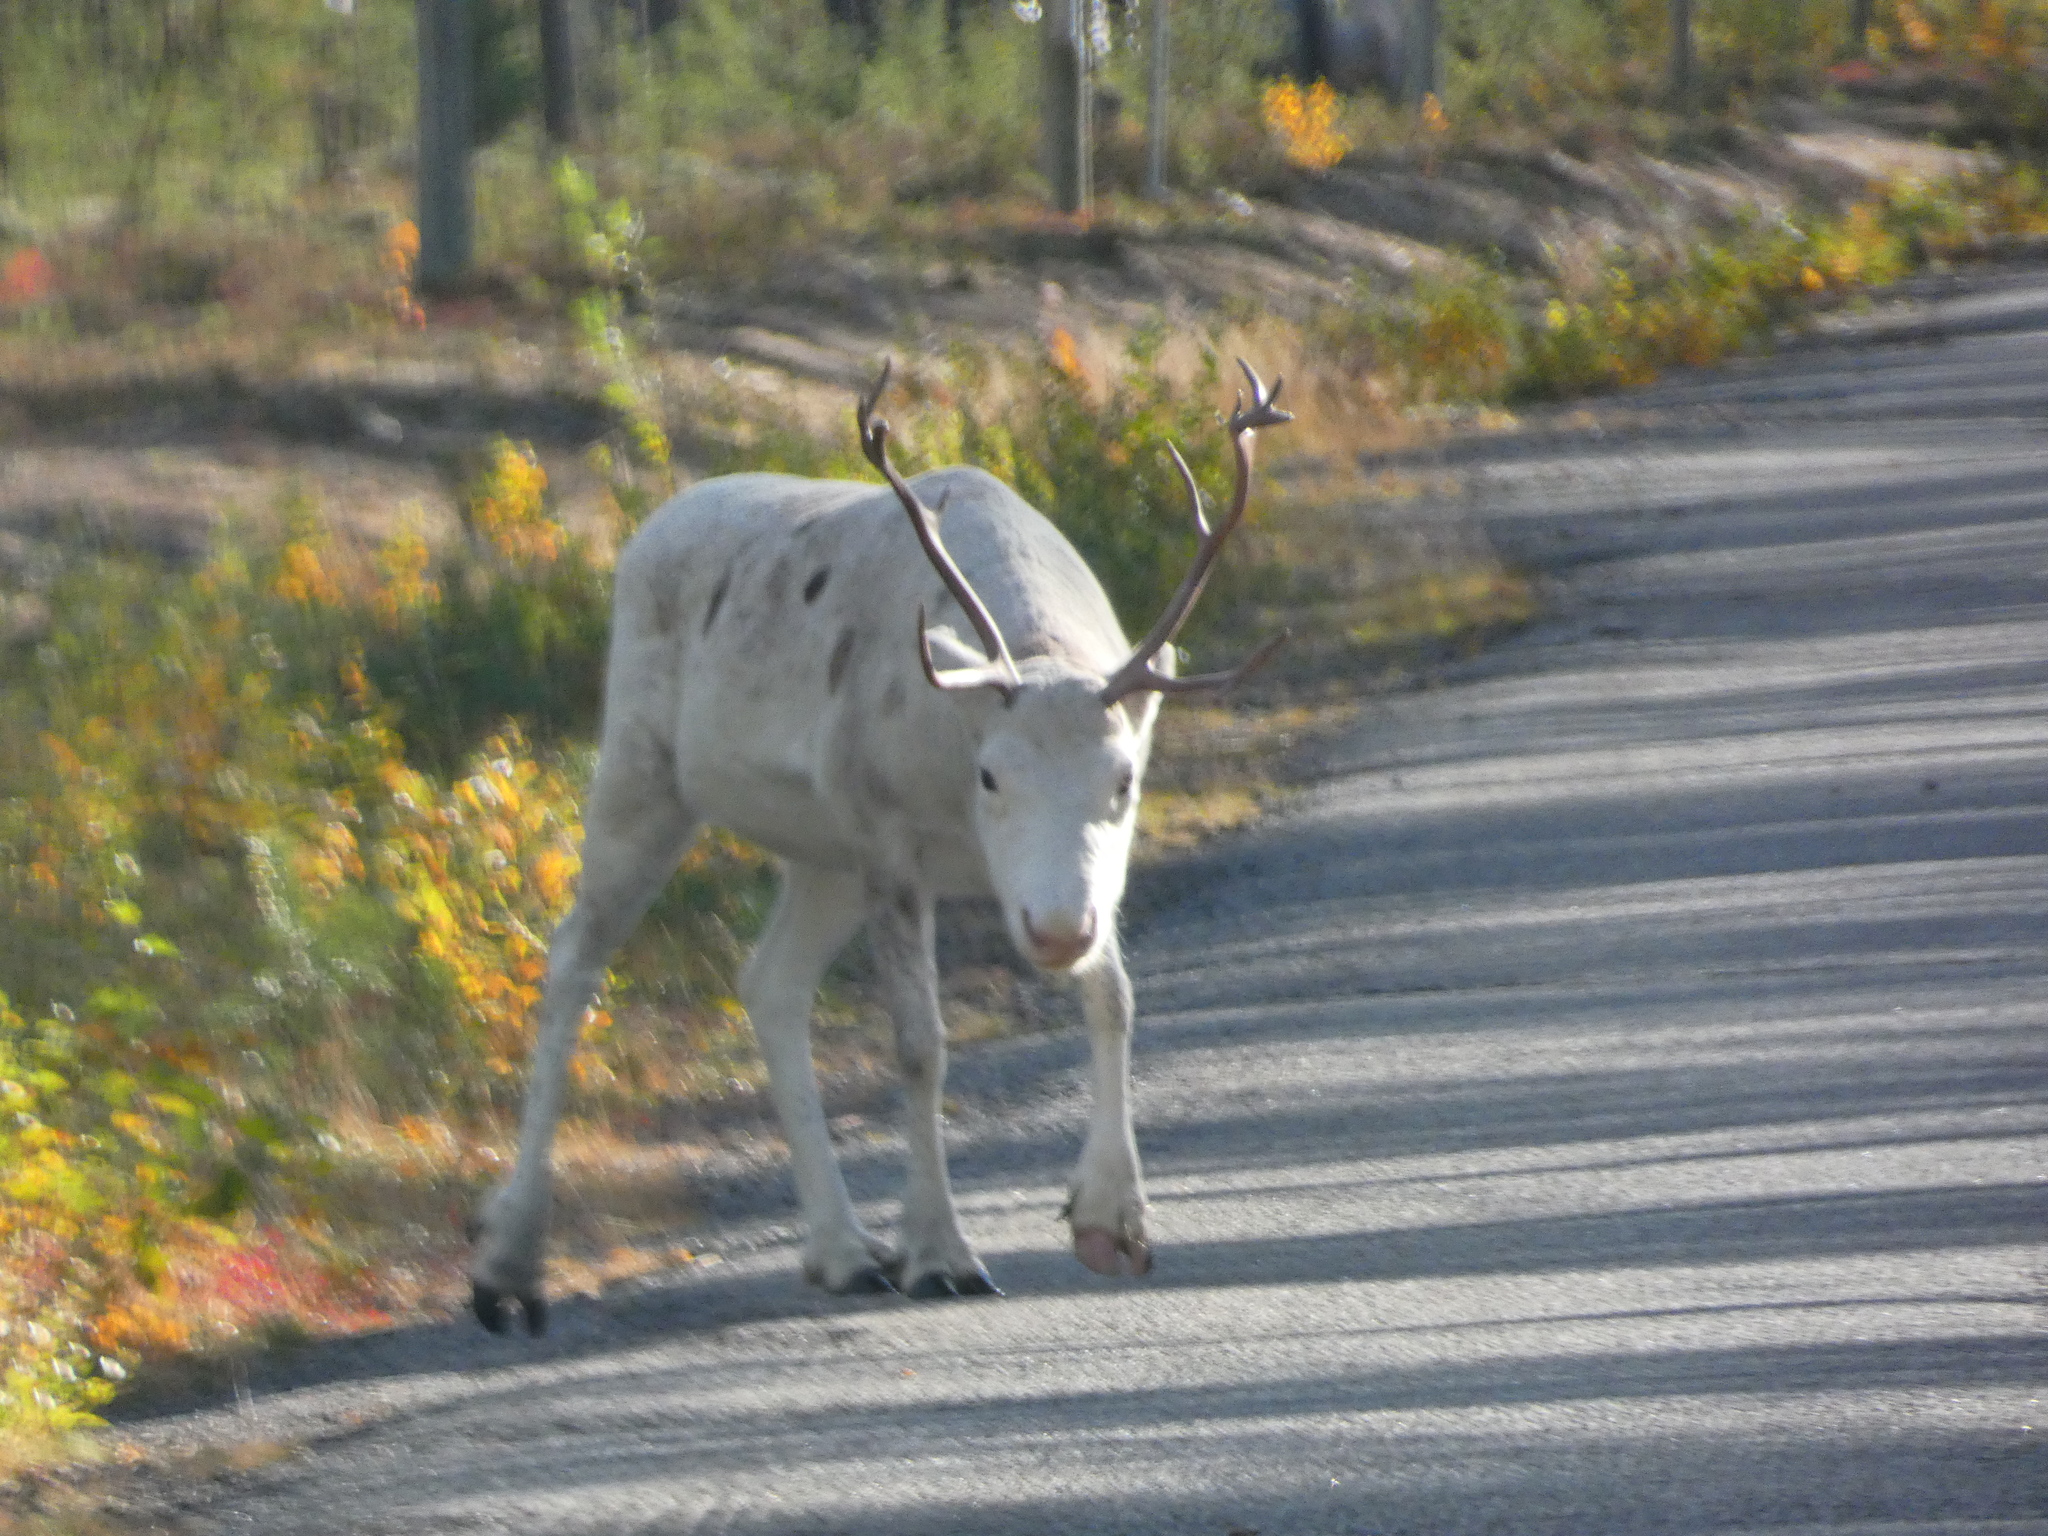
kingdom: Animalia
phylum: Chordata
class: Mammalia
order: Artiodactyla
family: Cervidae
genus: Rangifer
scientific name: Rangifer tarandus
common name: Reindeer
